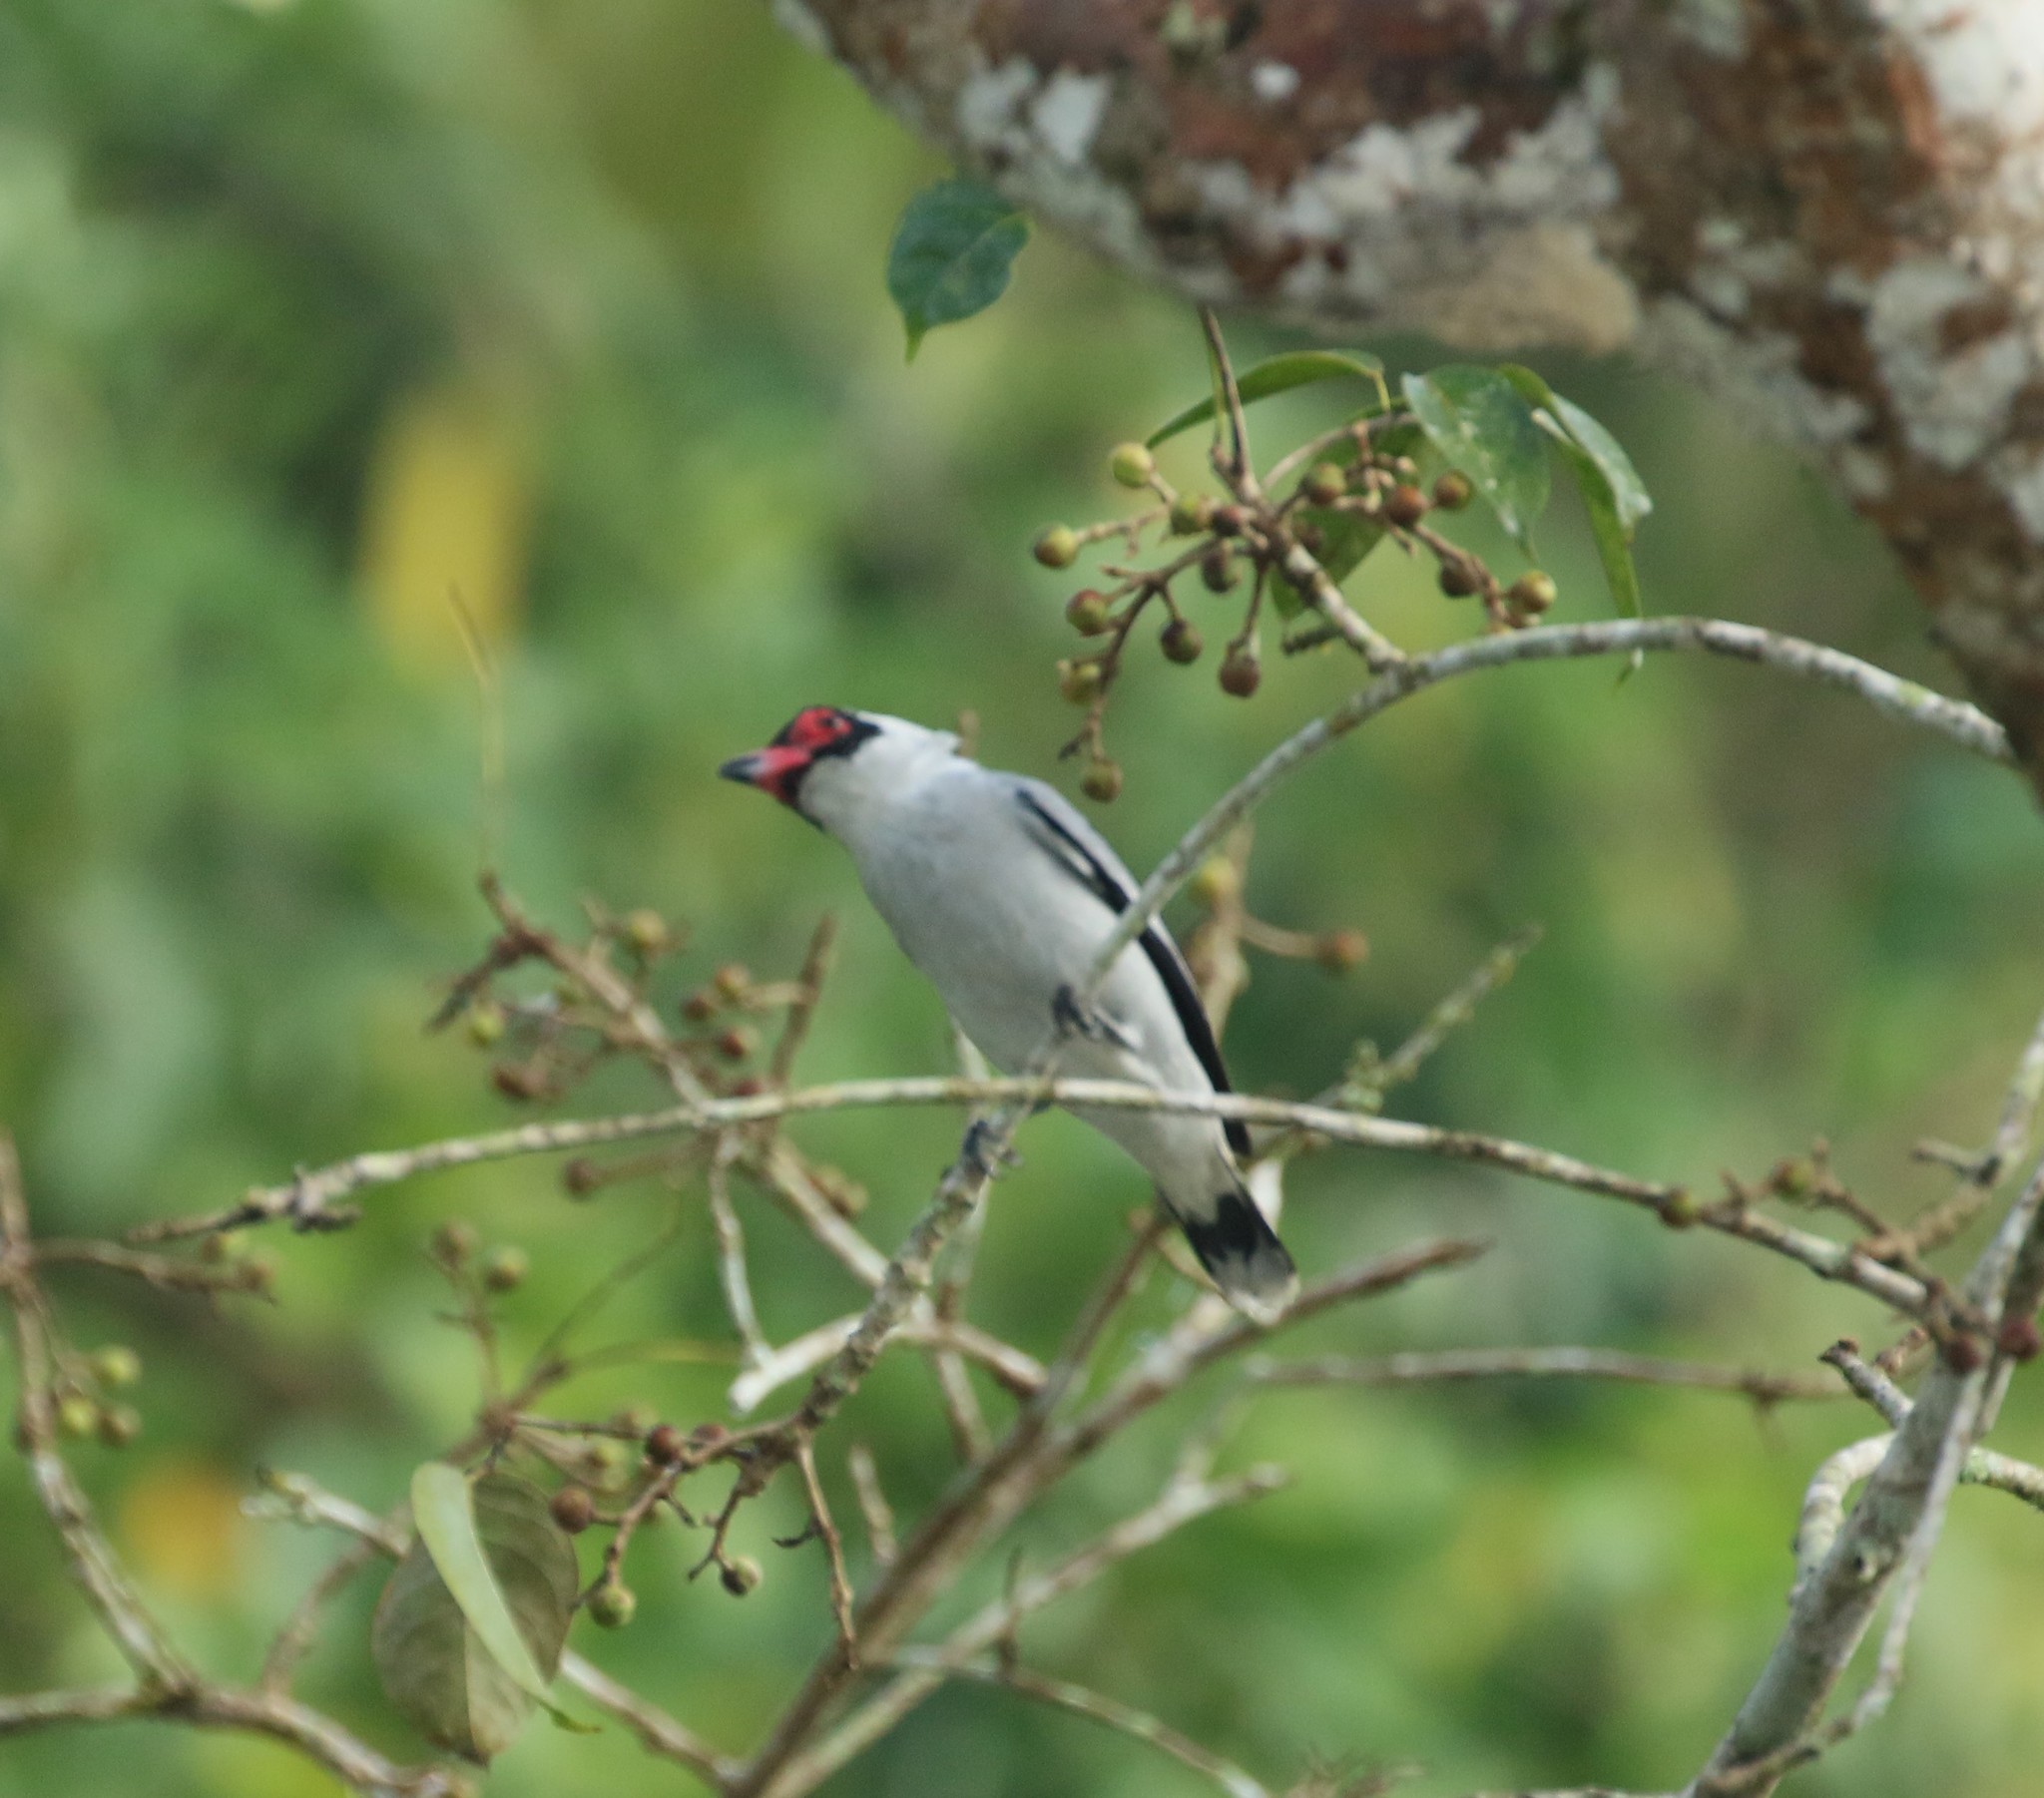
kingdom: Animalia
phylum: Chordata
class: Aves
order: Passeriformes
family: Cotingidae
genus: Tityra
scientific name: Tityra semifasciata
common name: Masked tityra
